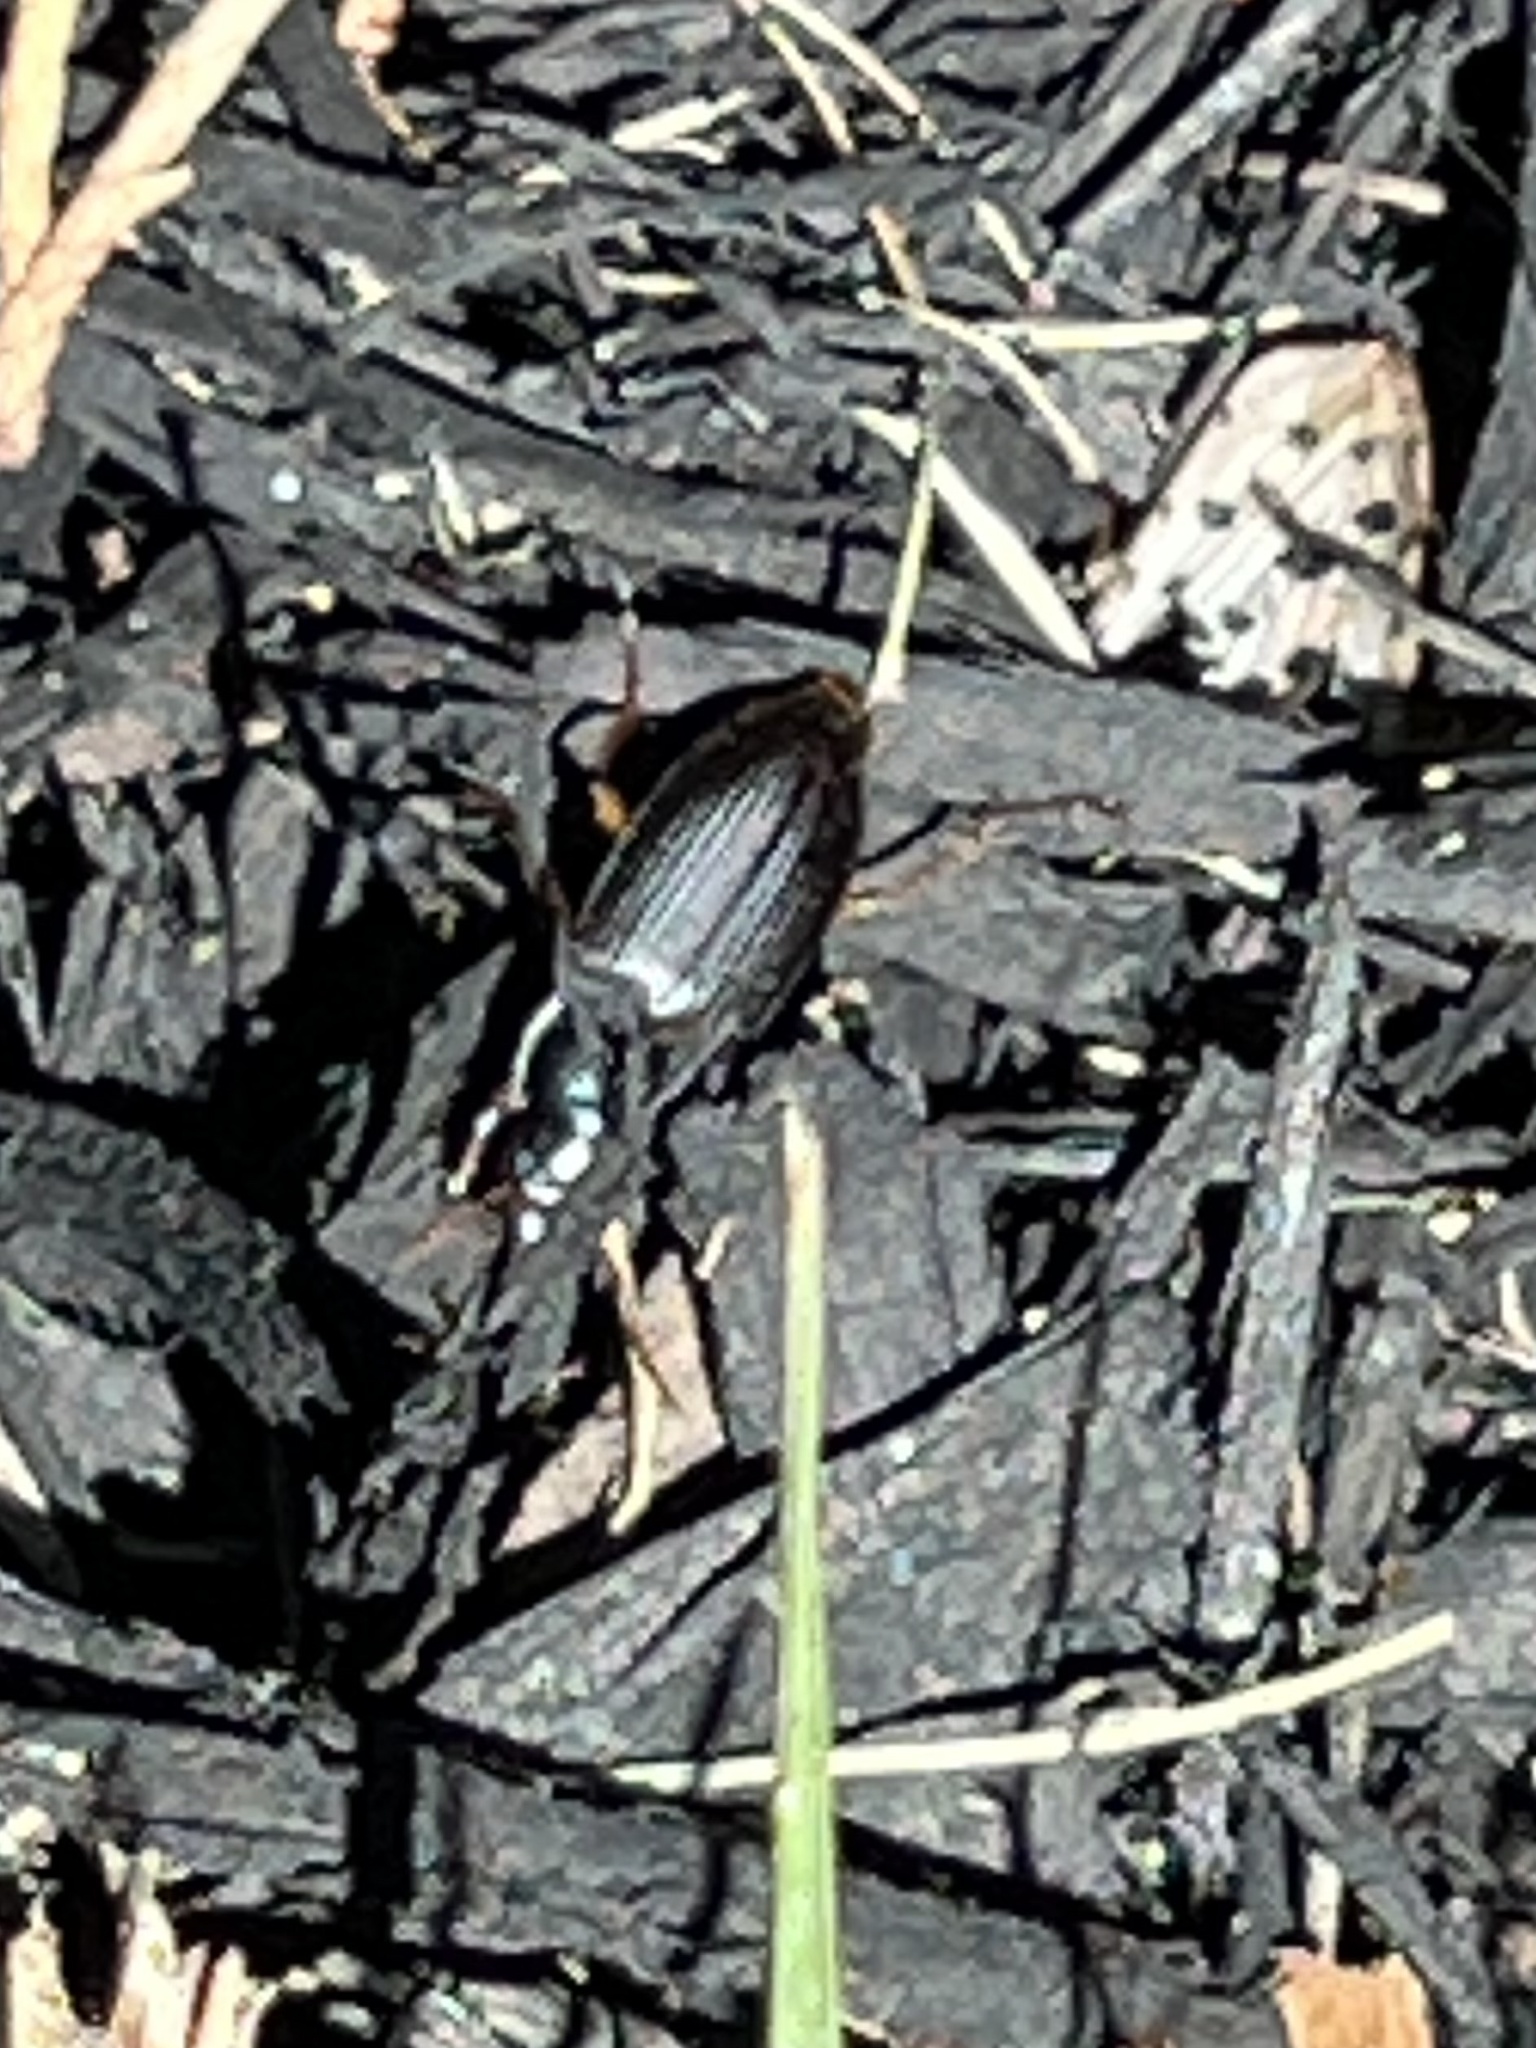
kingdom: Animalia
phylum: Arthropoda
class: Insecta
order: Coleoptera
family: Carabidae
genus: Poecilus
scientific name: Poecilus lucublandus
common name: Woodland ground beetle
